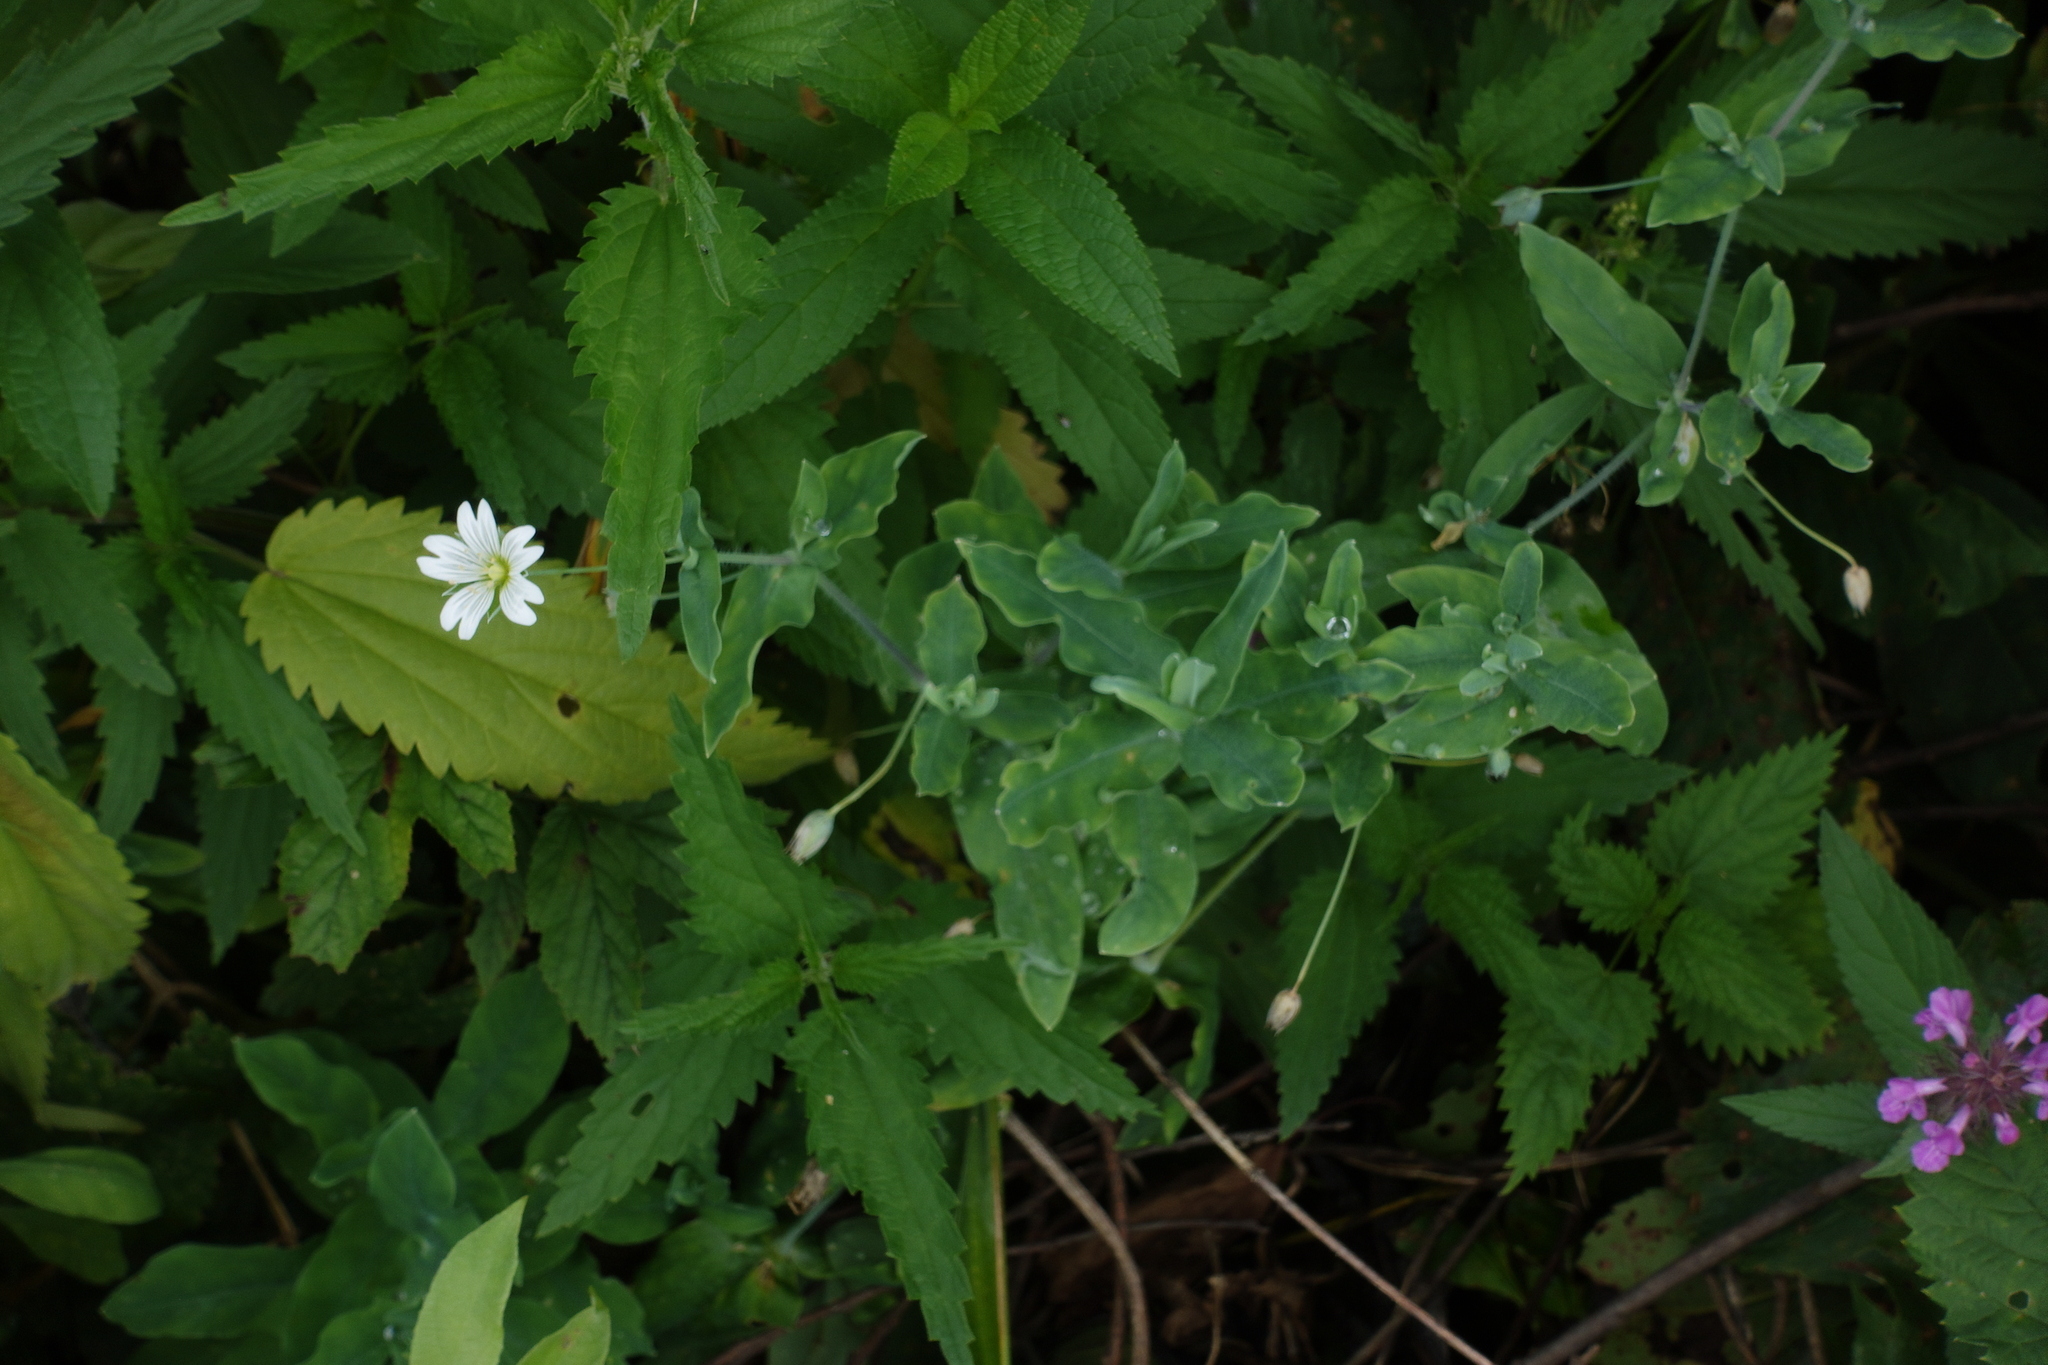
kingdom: Plantae
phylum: Tracheophyta
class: Magnoliopsida
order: Caryophyllales
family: Caryophyllaceae
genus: Cerastium
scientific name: Cerastium davuricum
